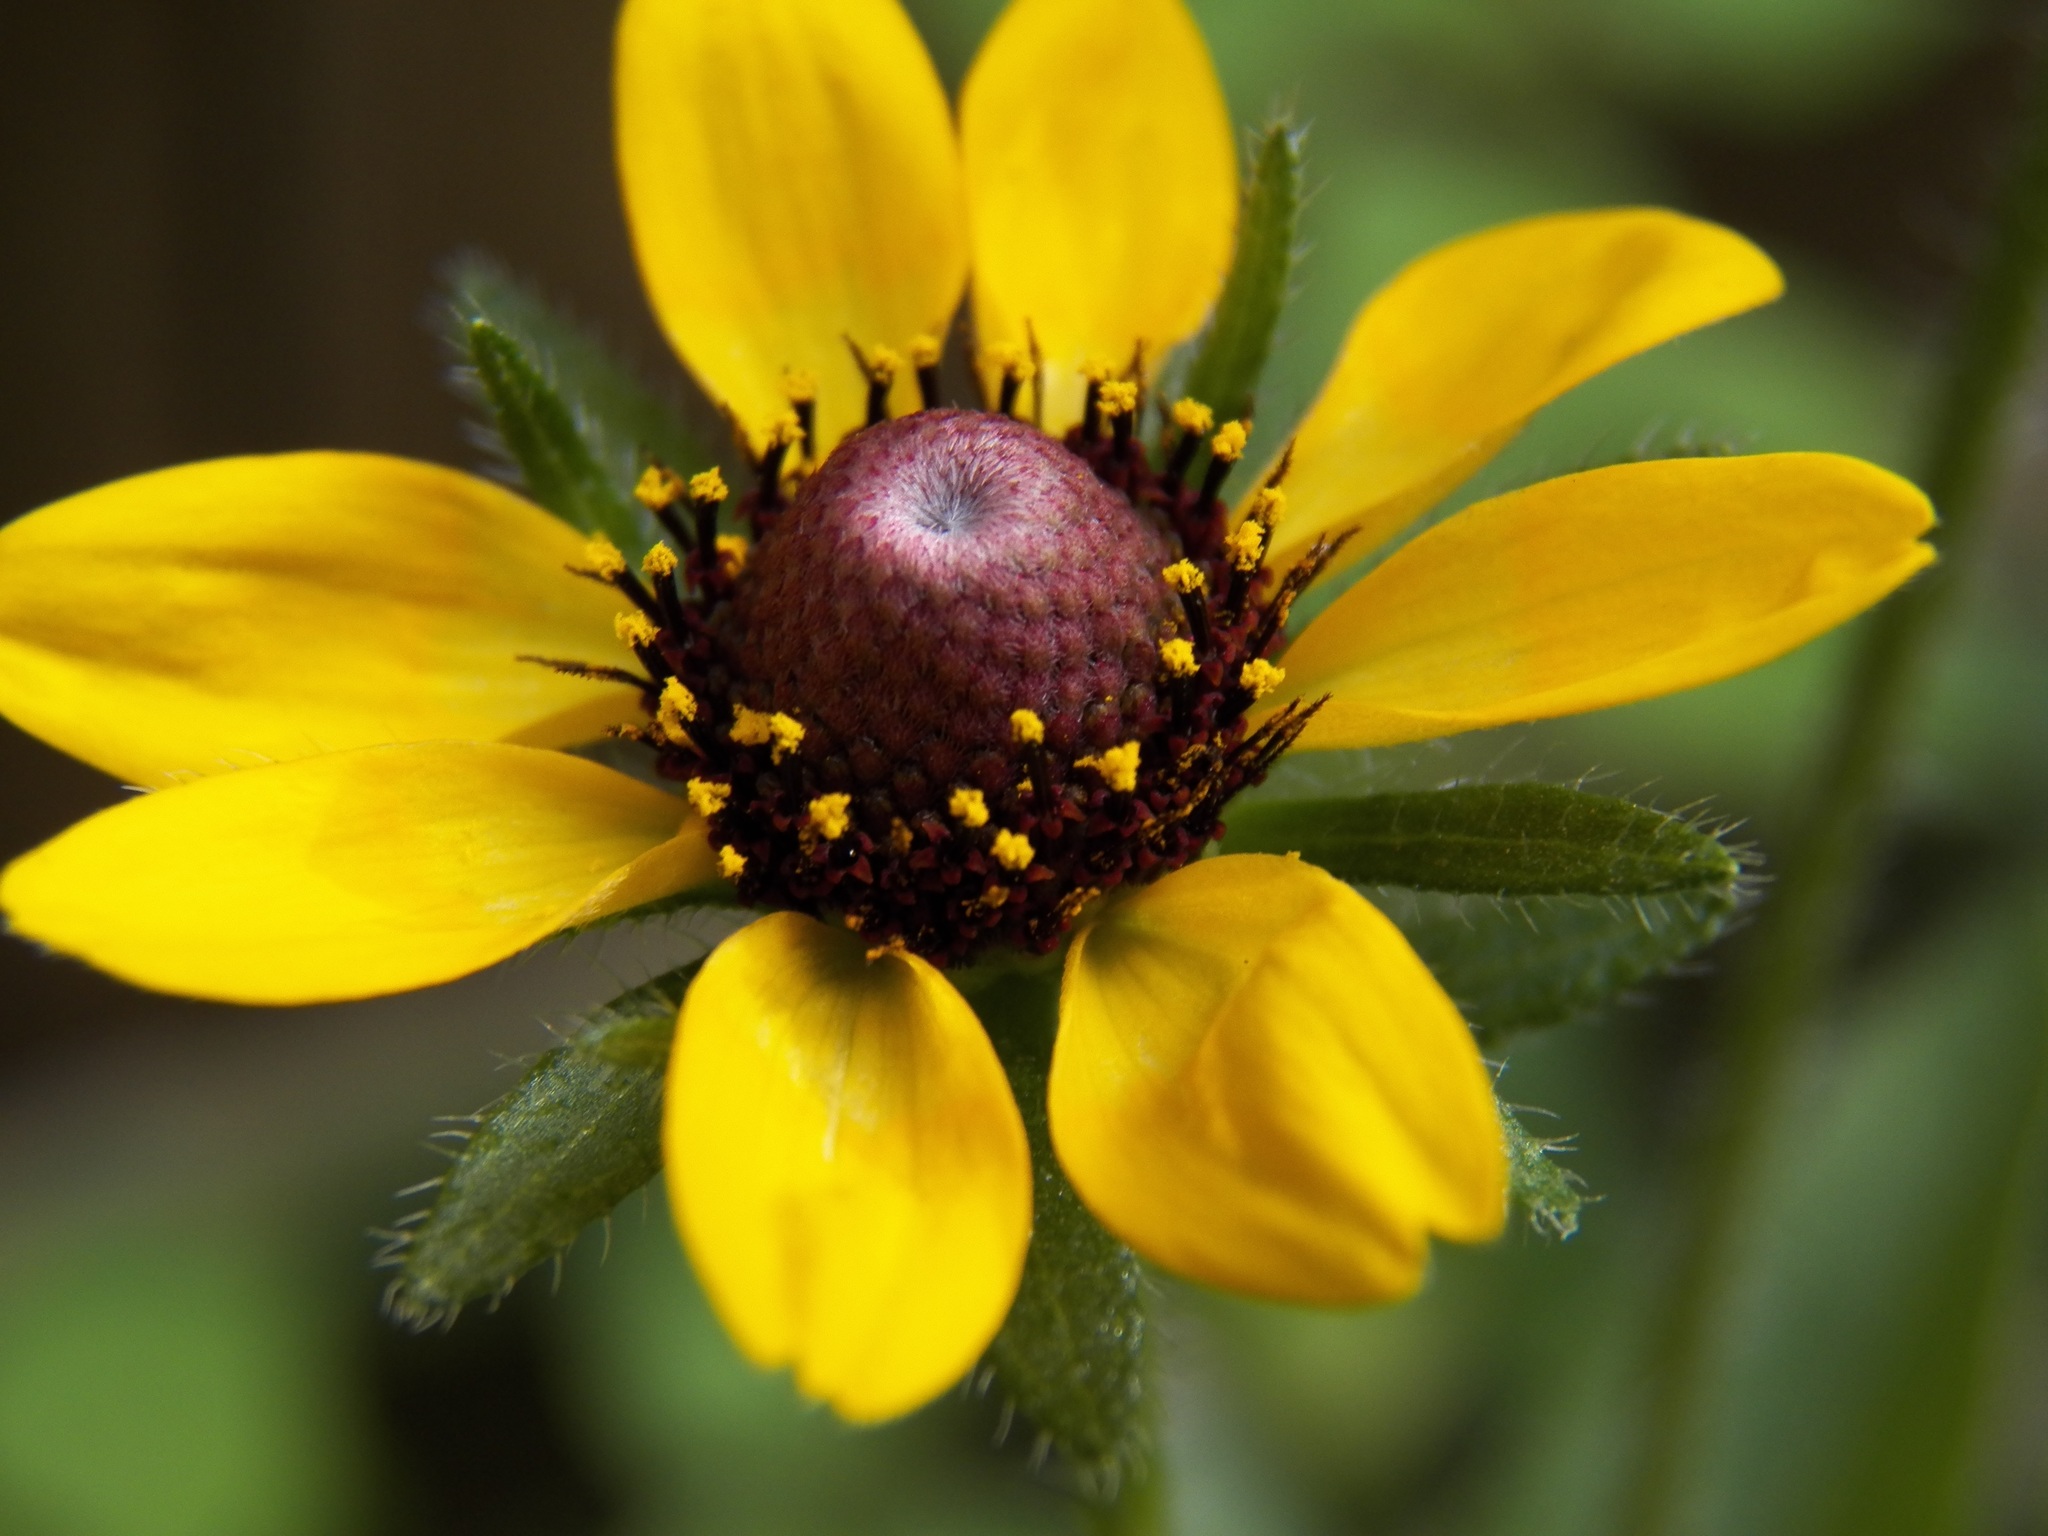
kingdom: Plantae
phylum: Tracheophyta
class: Magnoliopsida
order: Asterales
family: Asteraceae
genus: Rudbeckia
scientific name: Rudbeckia hirta
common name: Black-eyed-susan
